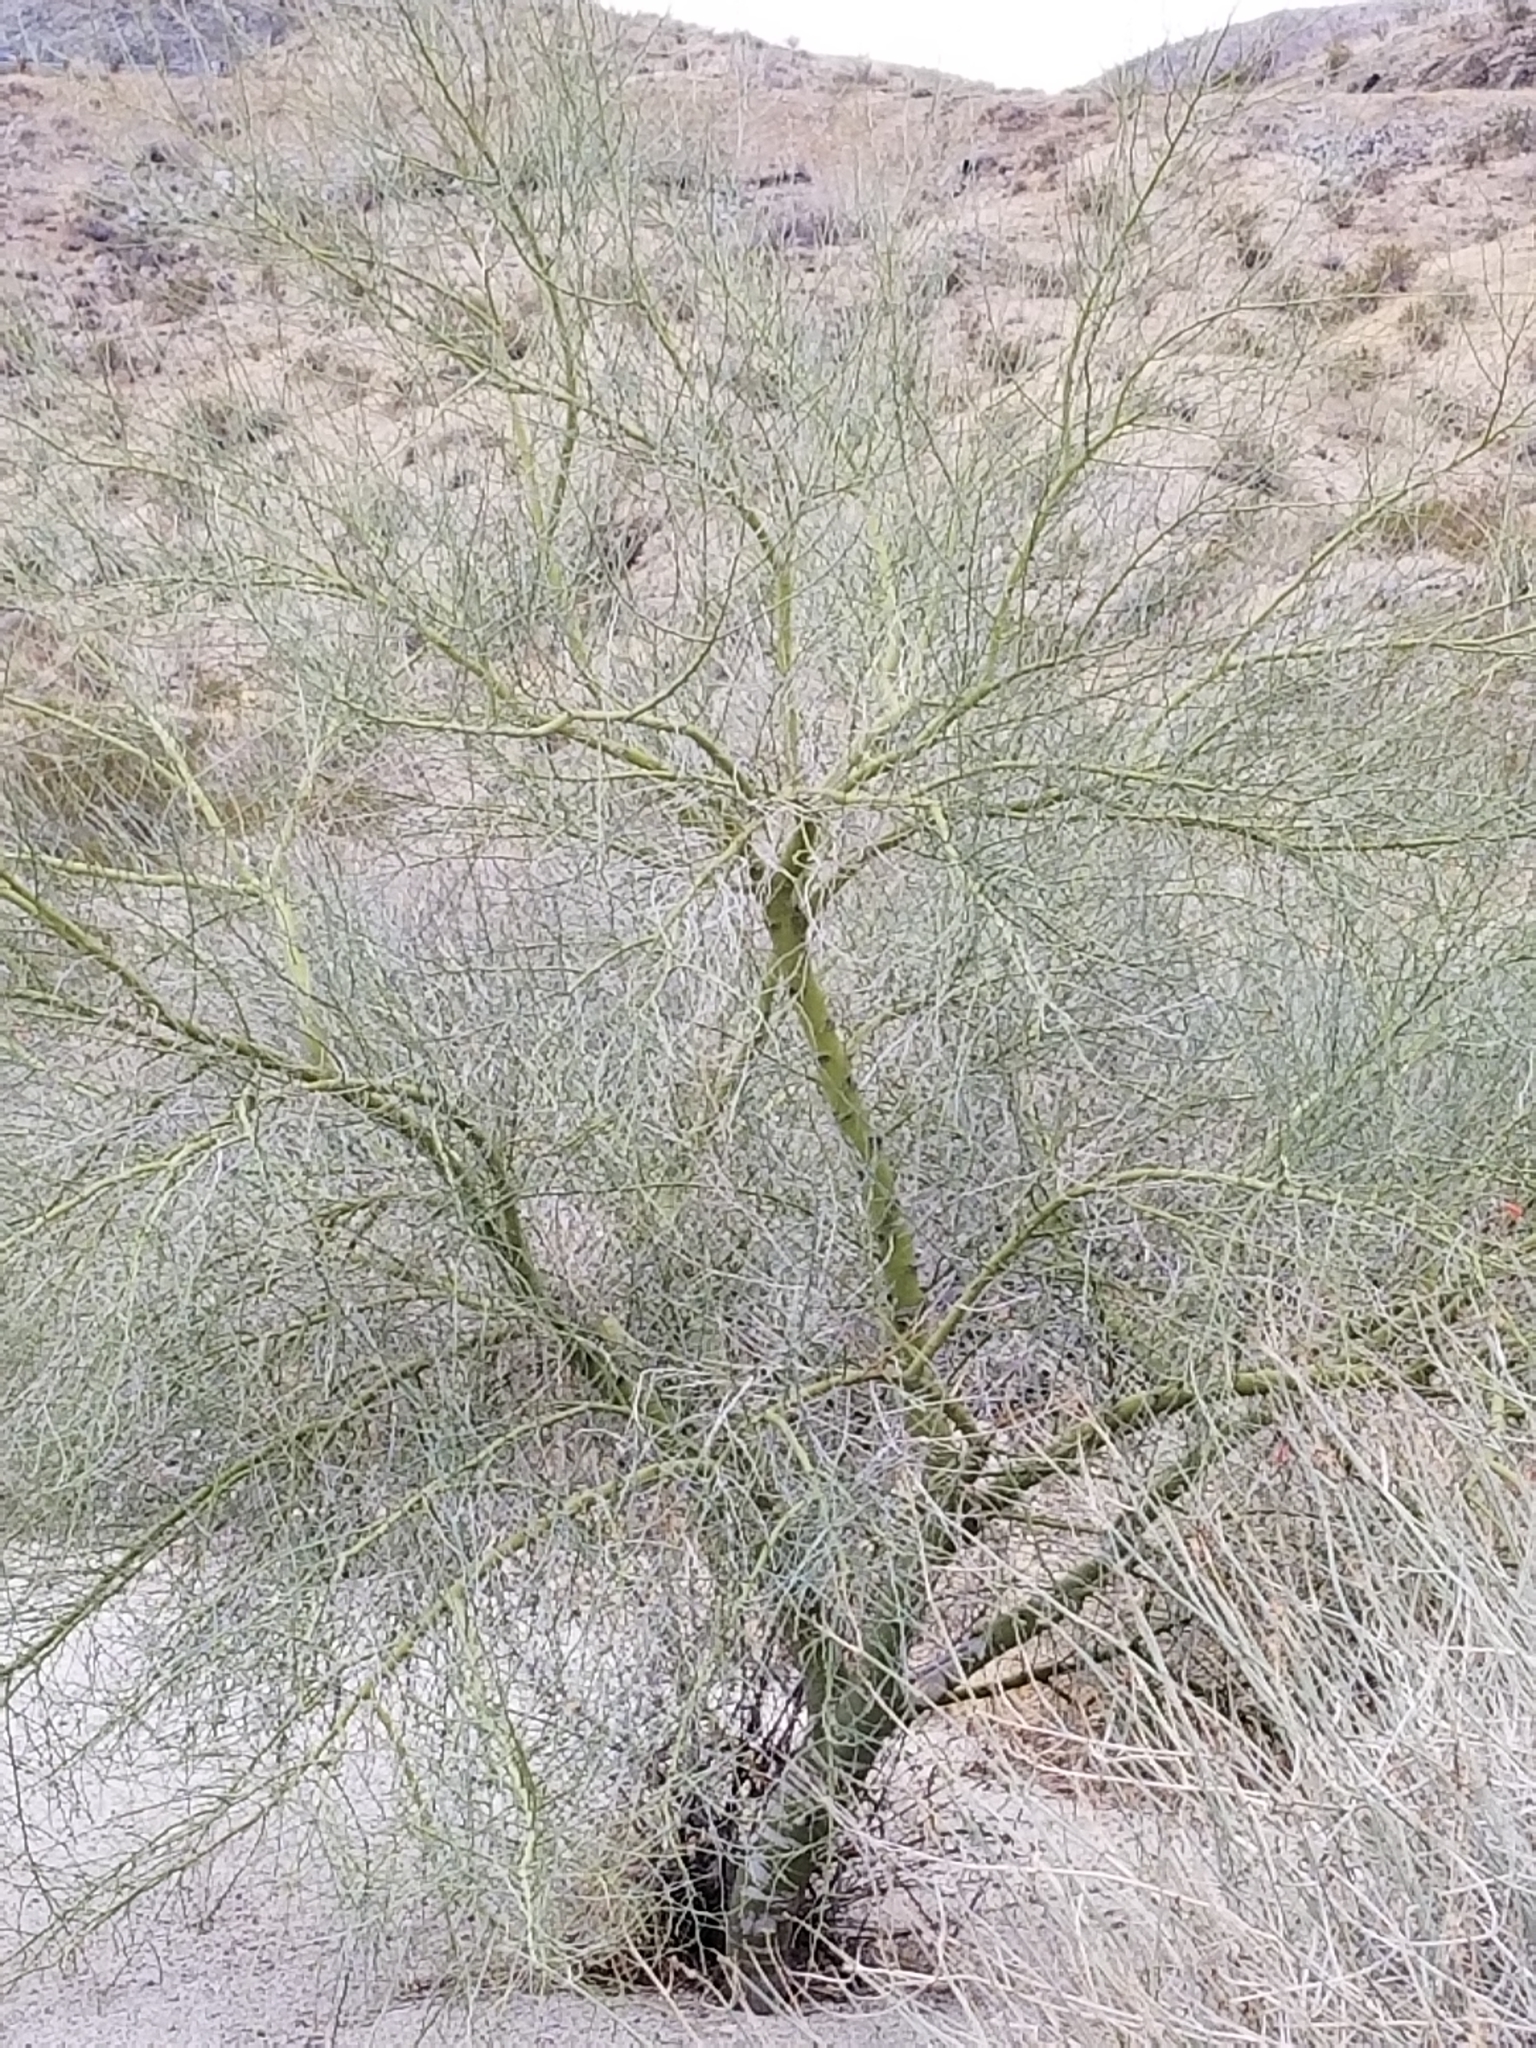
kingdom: Plantae
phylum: Tracheophyta
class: Magnoliopsida
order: Fabales
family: Fabaceae
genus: Parkinsonia
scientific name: Parkinsonia florida
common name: Blue paloverde
